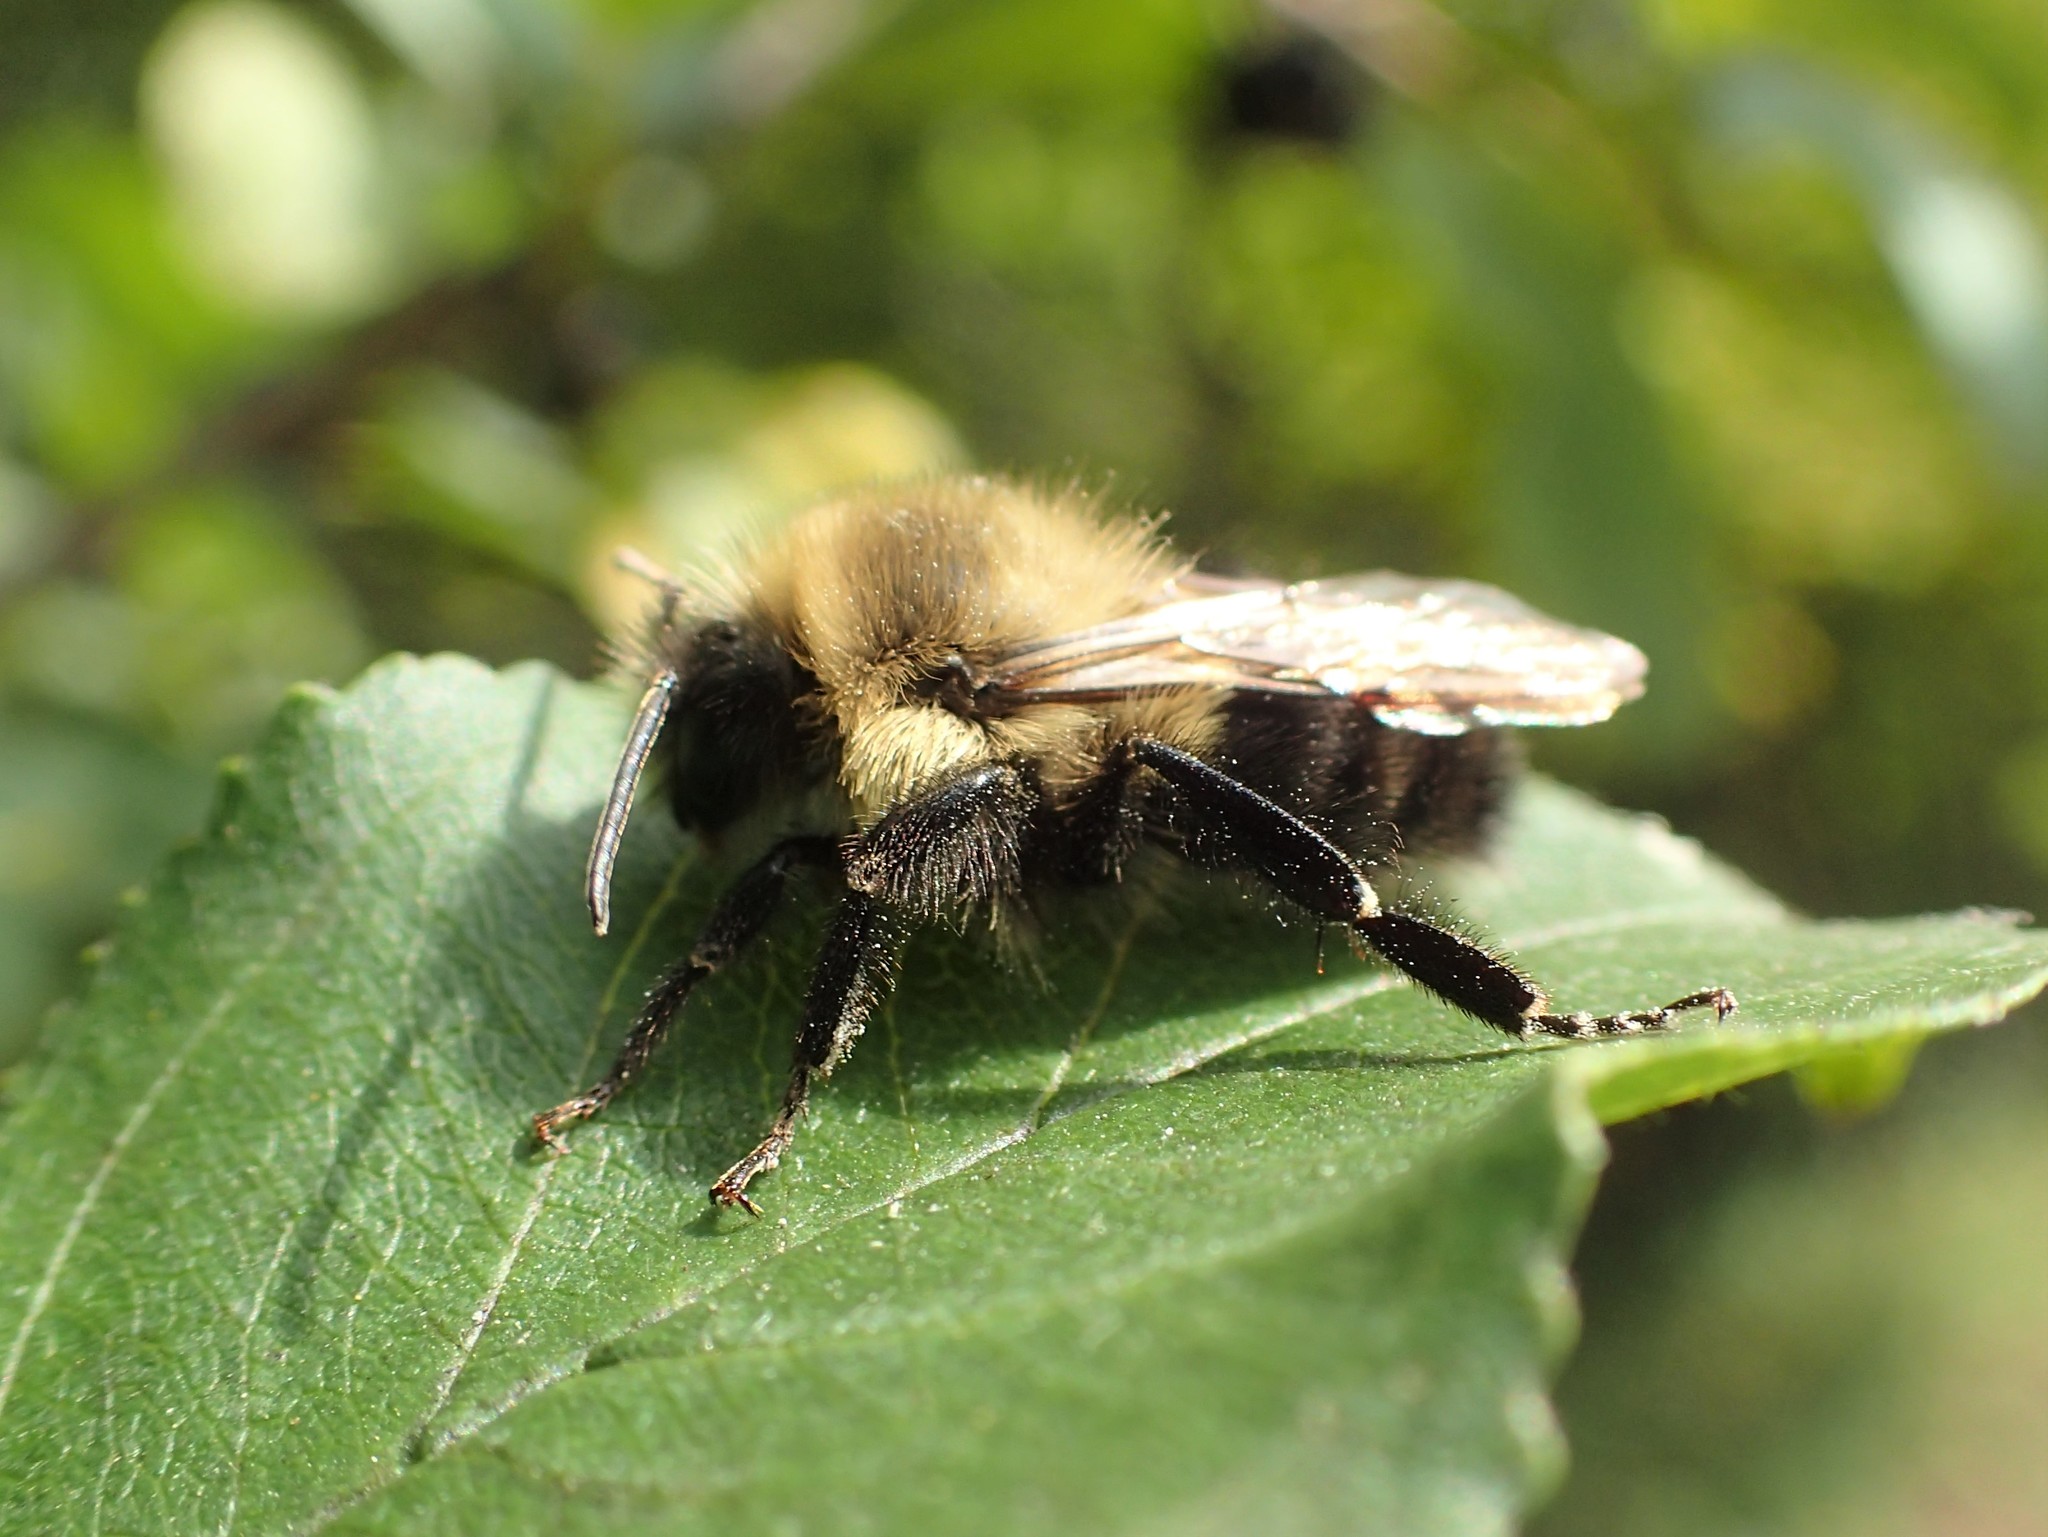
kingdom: Animalia
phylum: Arthropoda
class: Insecta
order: Hymenoptera
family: Apidae
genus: Bombus
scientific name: Bombus impatiens
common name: Common eastern bumble bee
